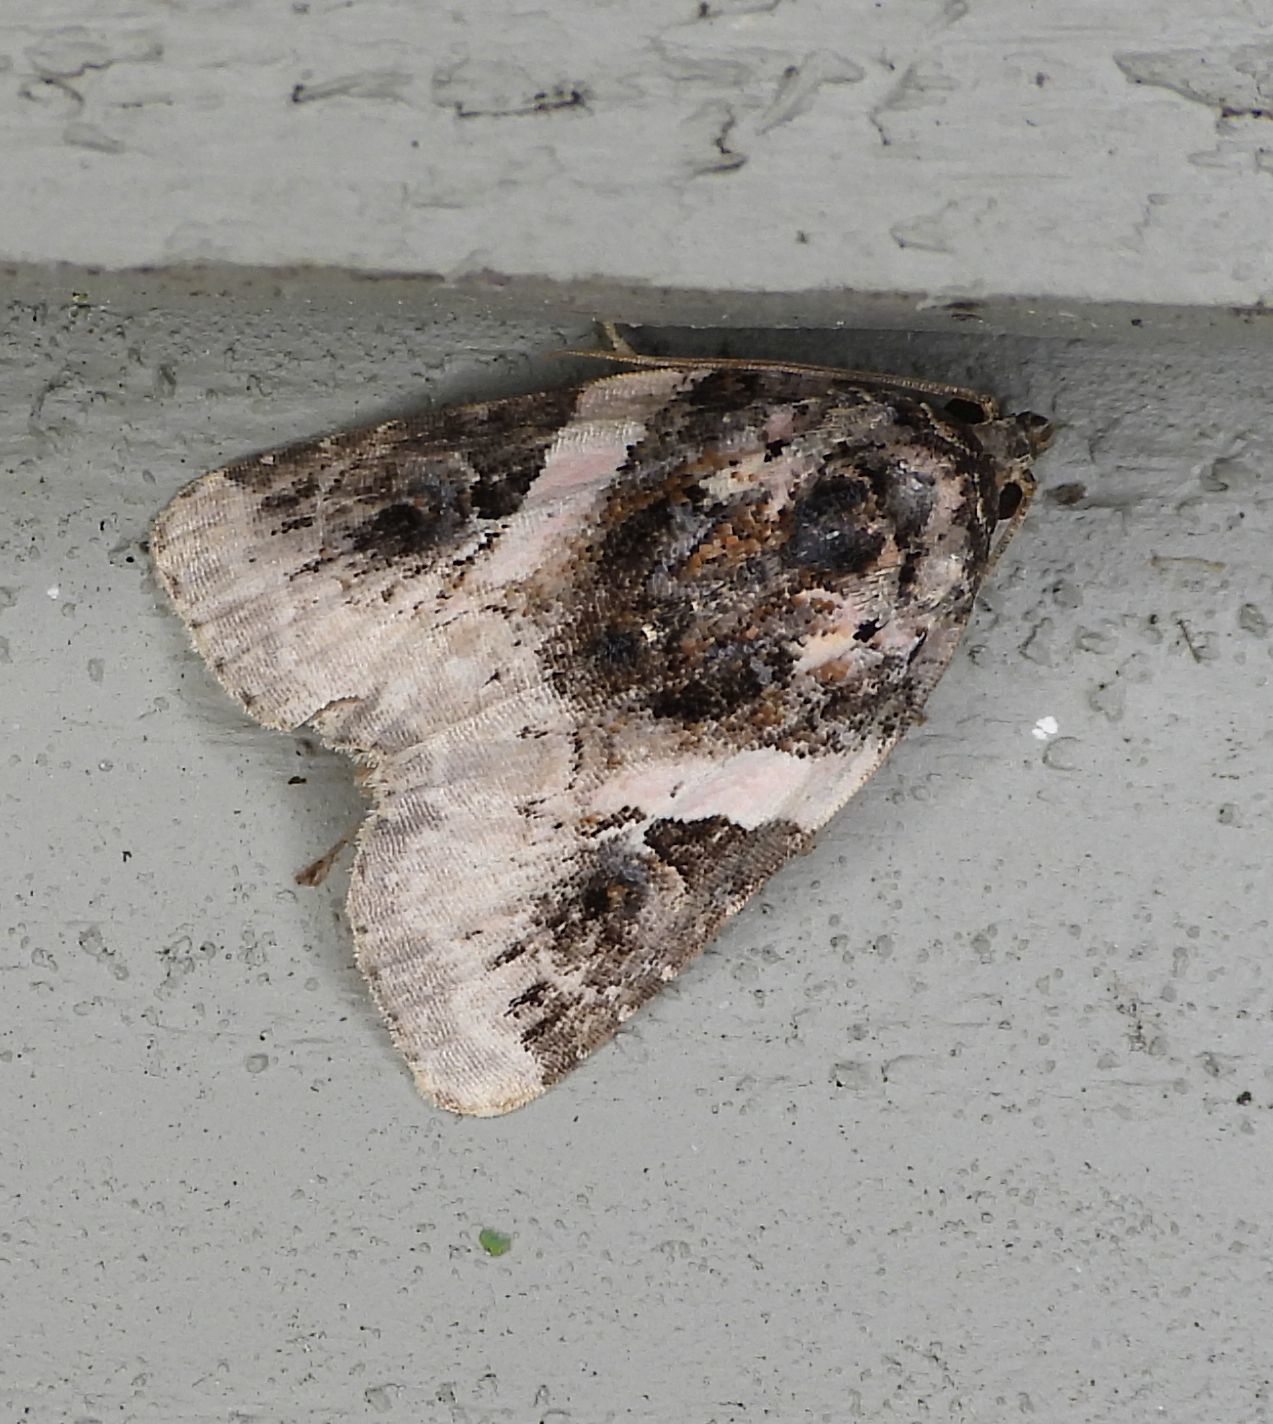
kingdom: Animalia
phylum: Arthropoda
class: Insecta
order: Lepidoptera
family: Noctuidae
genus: Pseudeustrotia
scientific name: Pseudeustrotia carneola
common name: Pink-barred lithacodia moth
